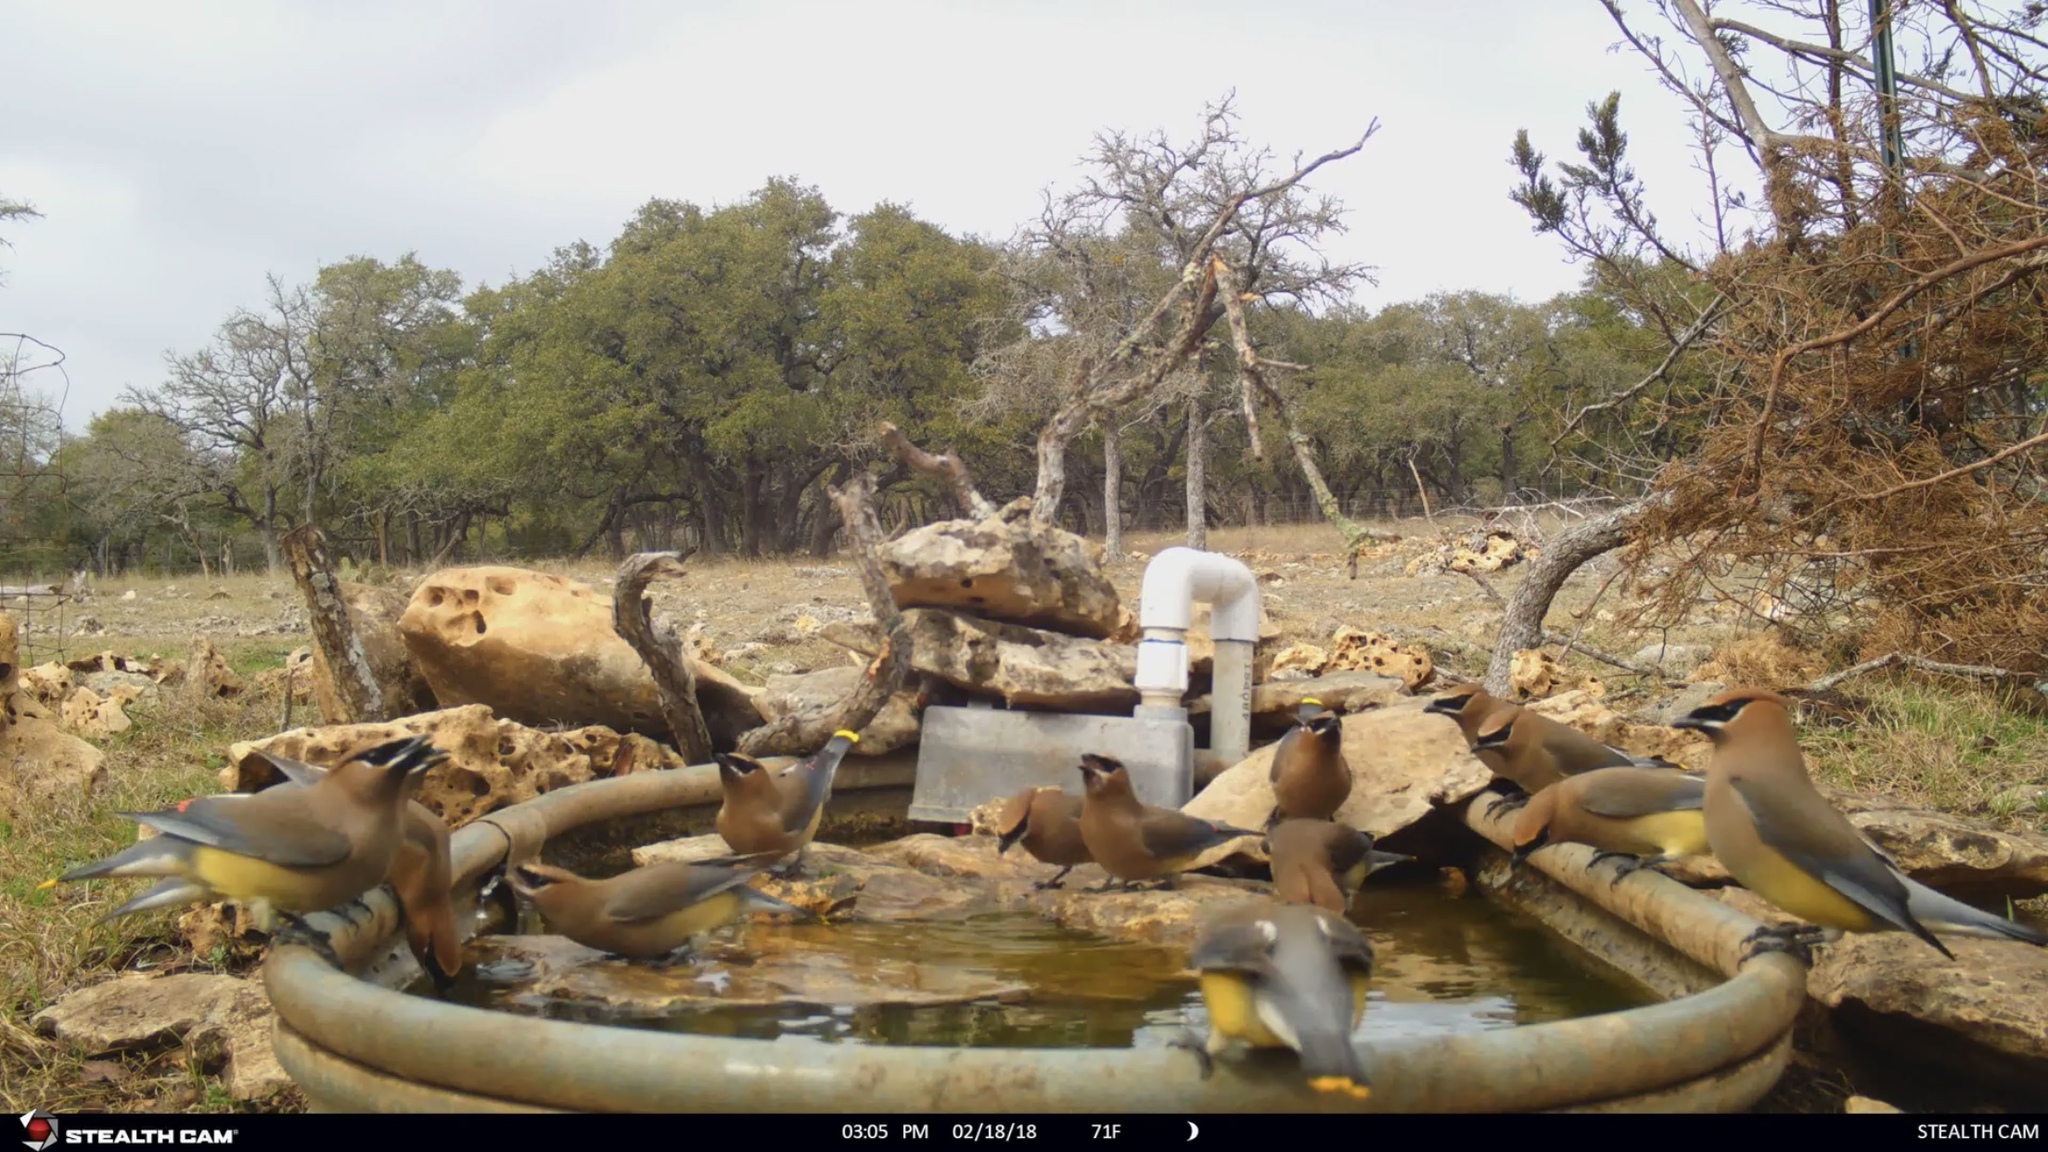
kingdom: Animalia
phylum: Chordata
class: Aves
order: Passeriformes
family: Bombycillidae
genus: Bombycilla
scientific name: Bombycilla cedrorum
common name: Cedar waxwing
